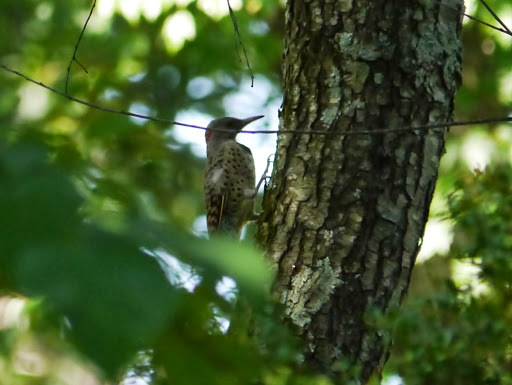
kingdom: Animalia
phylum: Chordata
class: Aves
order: Piciformes
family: Picidae
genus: Colaptes
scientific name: Colaptes auratus
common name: Northern flicker
